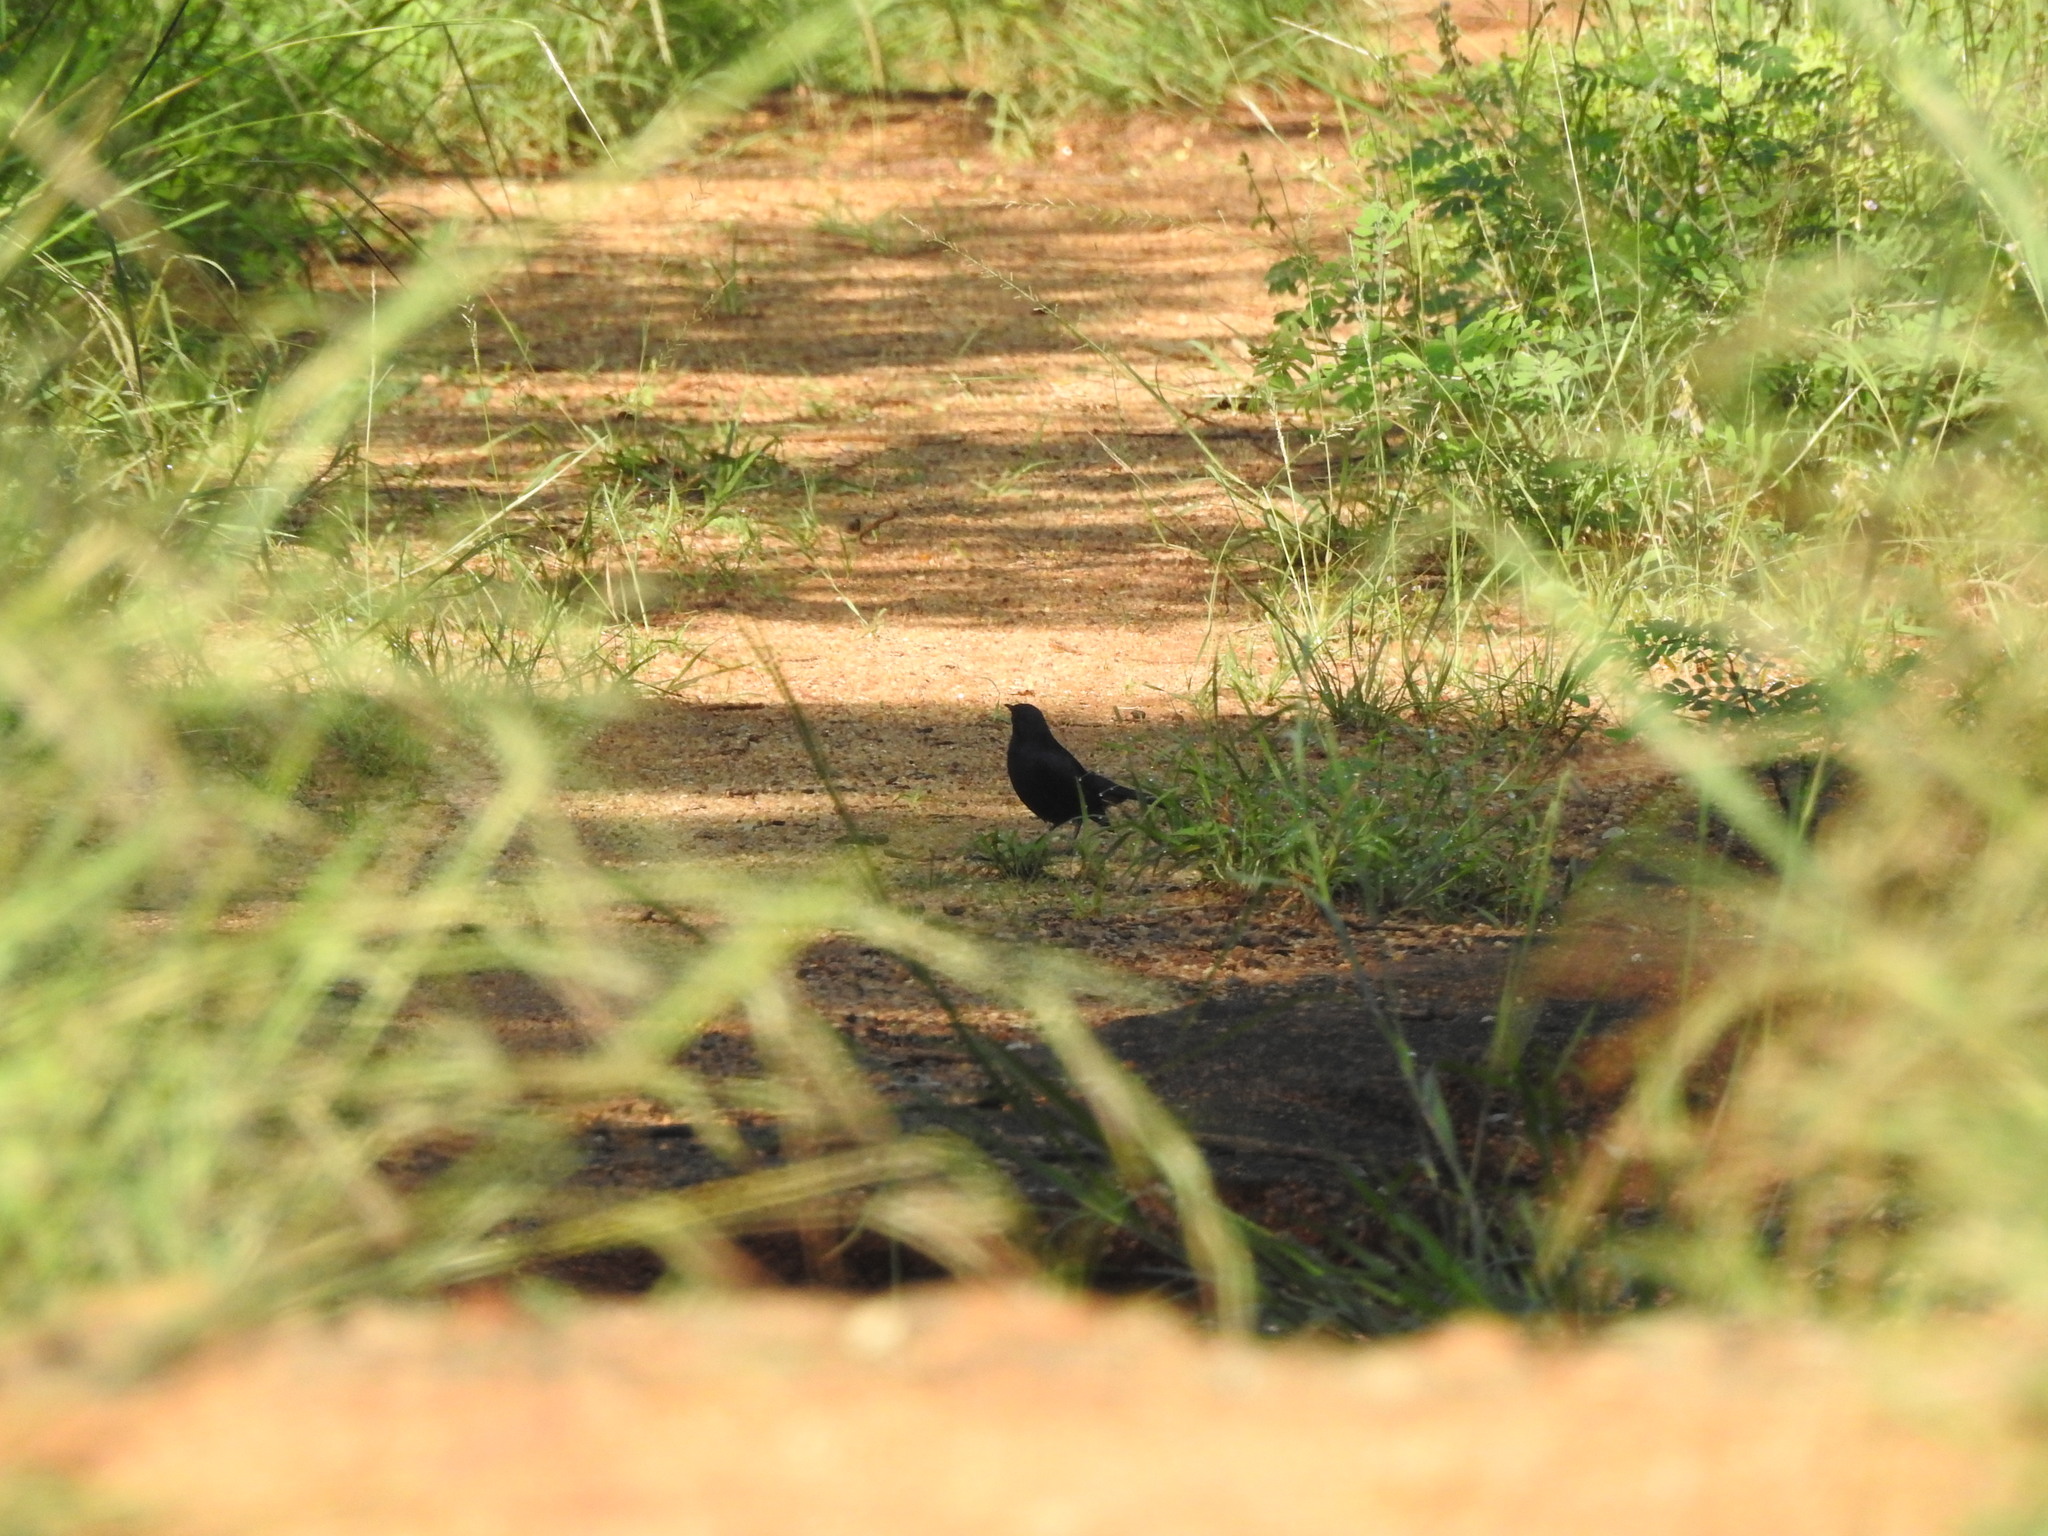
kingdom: Animalia
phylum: Chordata
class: Aves
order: Passeriformes
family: Muscicapidae
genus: Saxicoloides
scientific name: Saxicoloides fulicatus
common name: Indian robin
